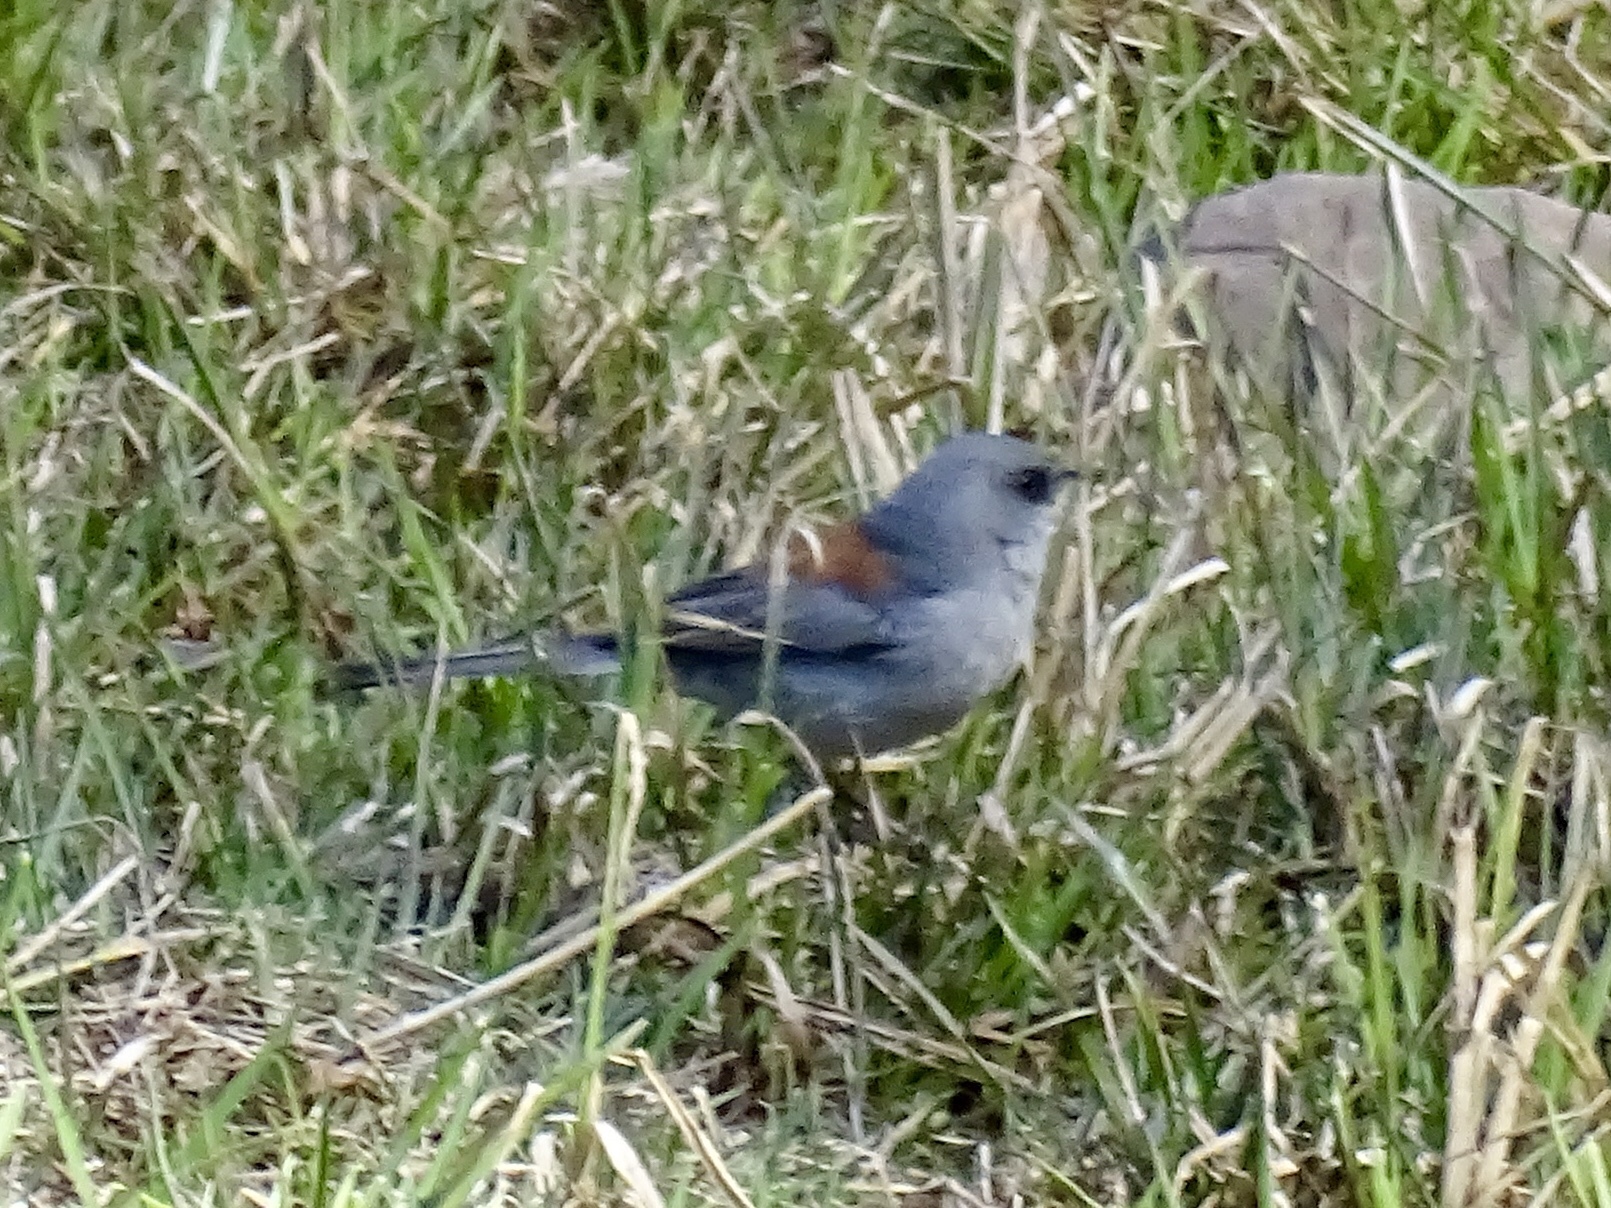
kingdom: Animalia
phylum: Chordata
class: Aves
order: Passeriformes
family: Passerellidae
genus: Junco
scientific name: Junco hyemalis
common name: Dark-eyed junco
